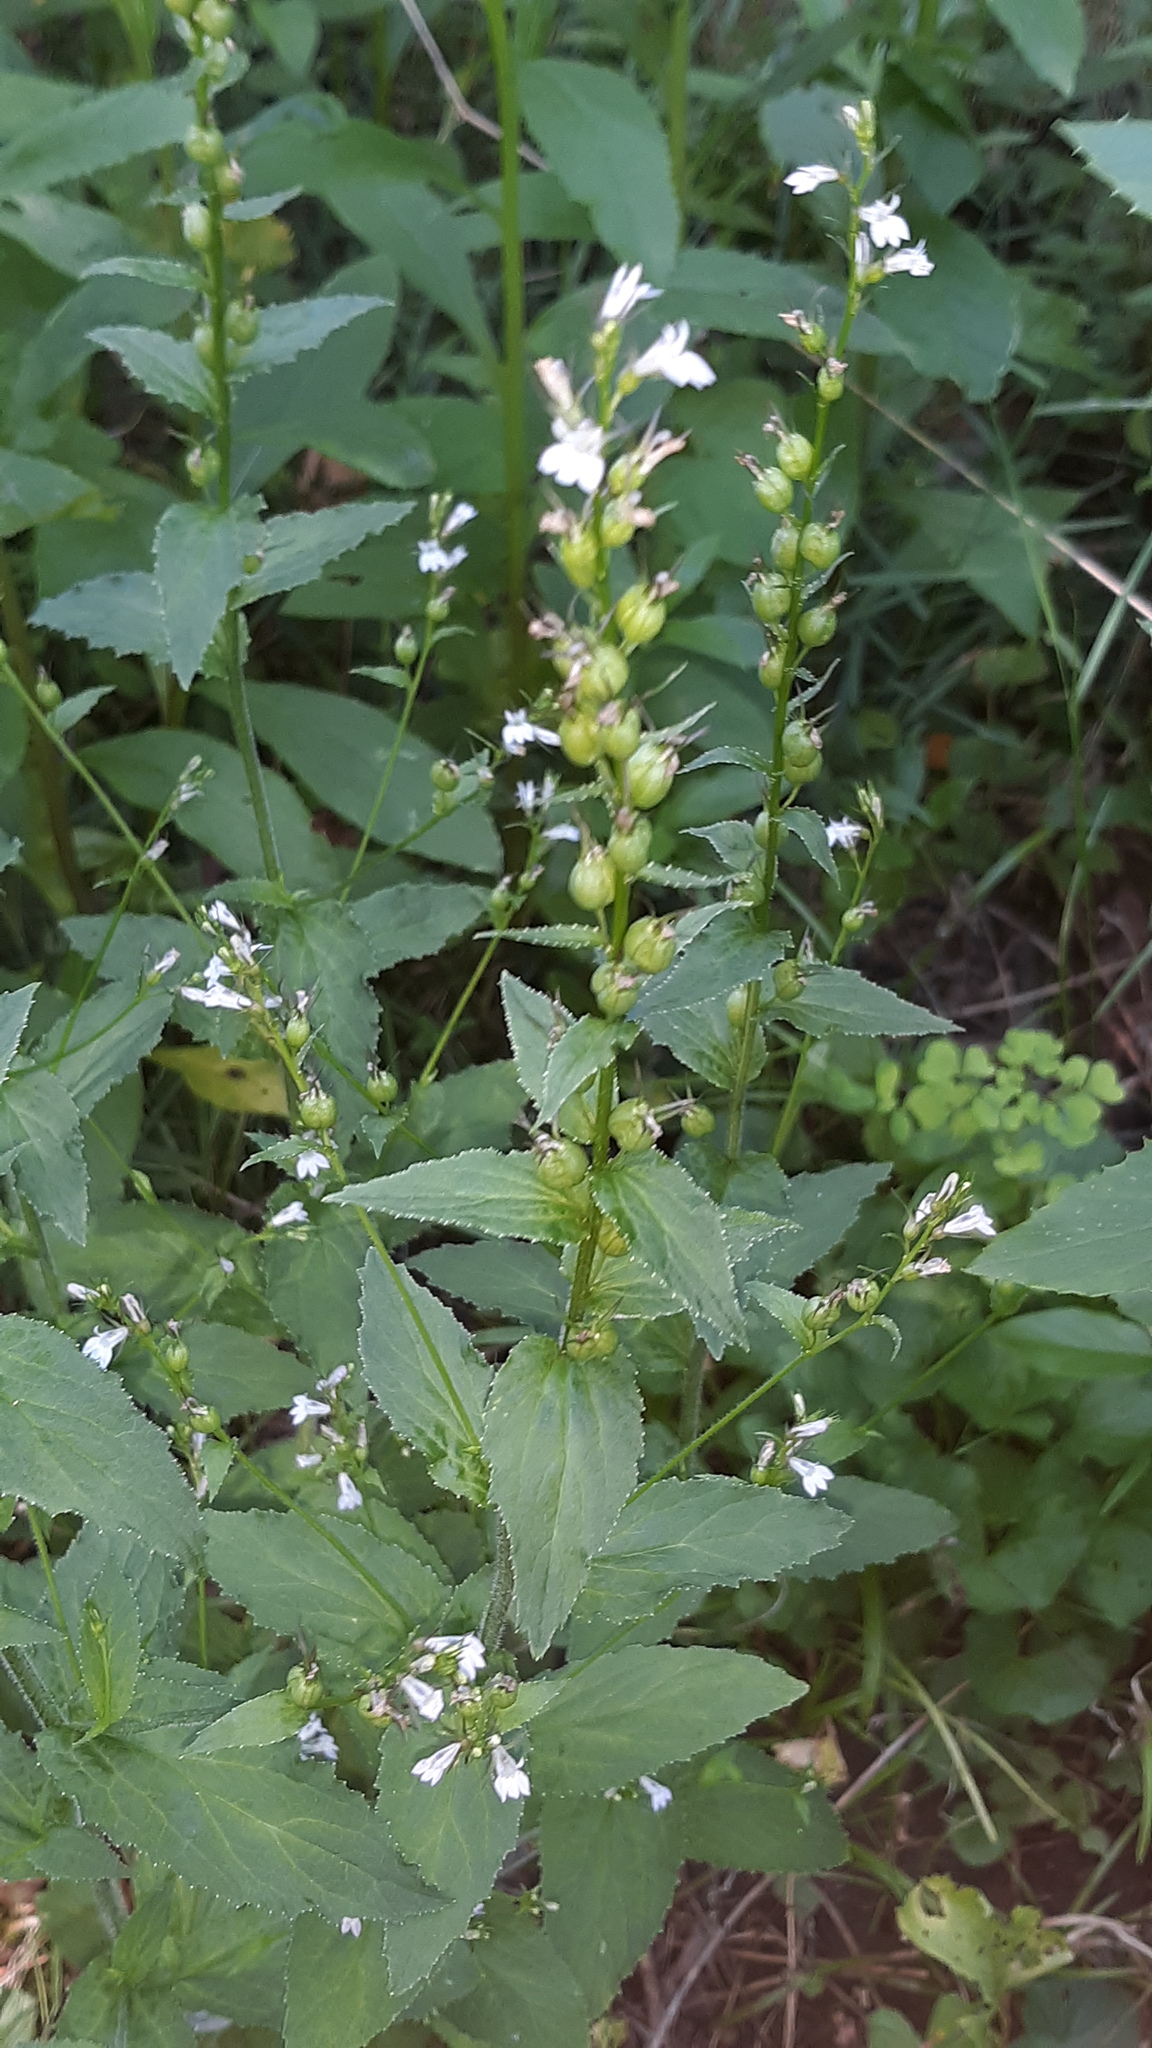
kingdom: Plantae
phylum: Tracheophyta
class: Magnoliopsida
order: Asterales
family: Campanulaceae
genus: Lobelia
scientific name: Lobelia inflata
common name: Indian tobacco
